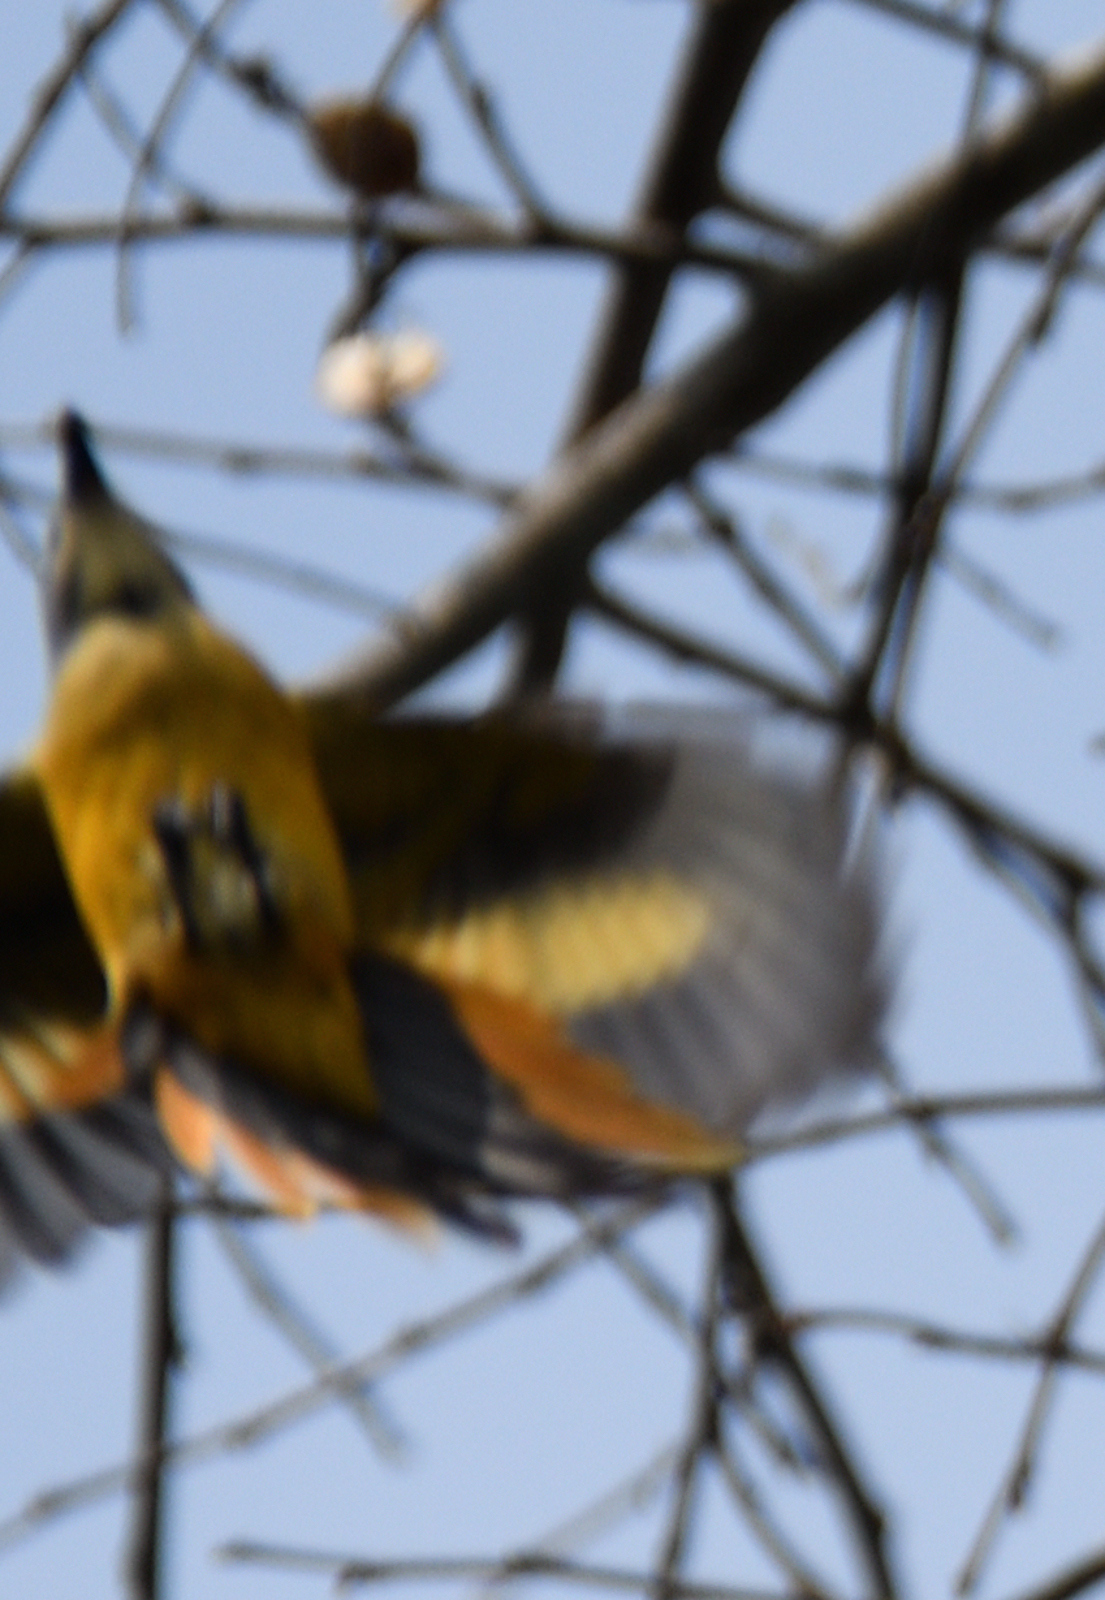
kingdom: Animalia
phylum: Chordata
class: Aves
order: Passeriformes
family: Campephagidae
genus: Pericrocotus
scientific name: Pericrocotus cinnamomeus
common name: Small minivet
